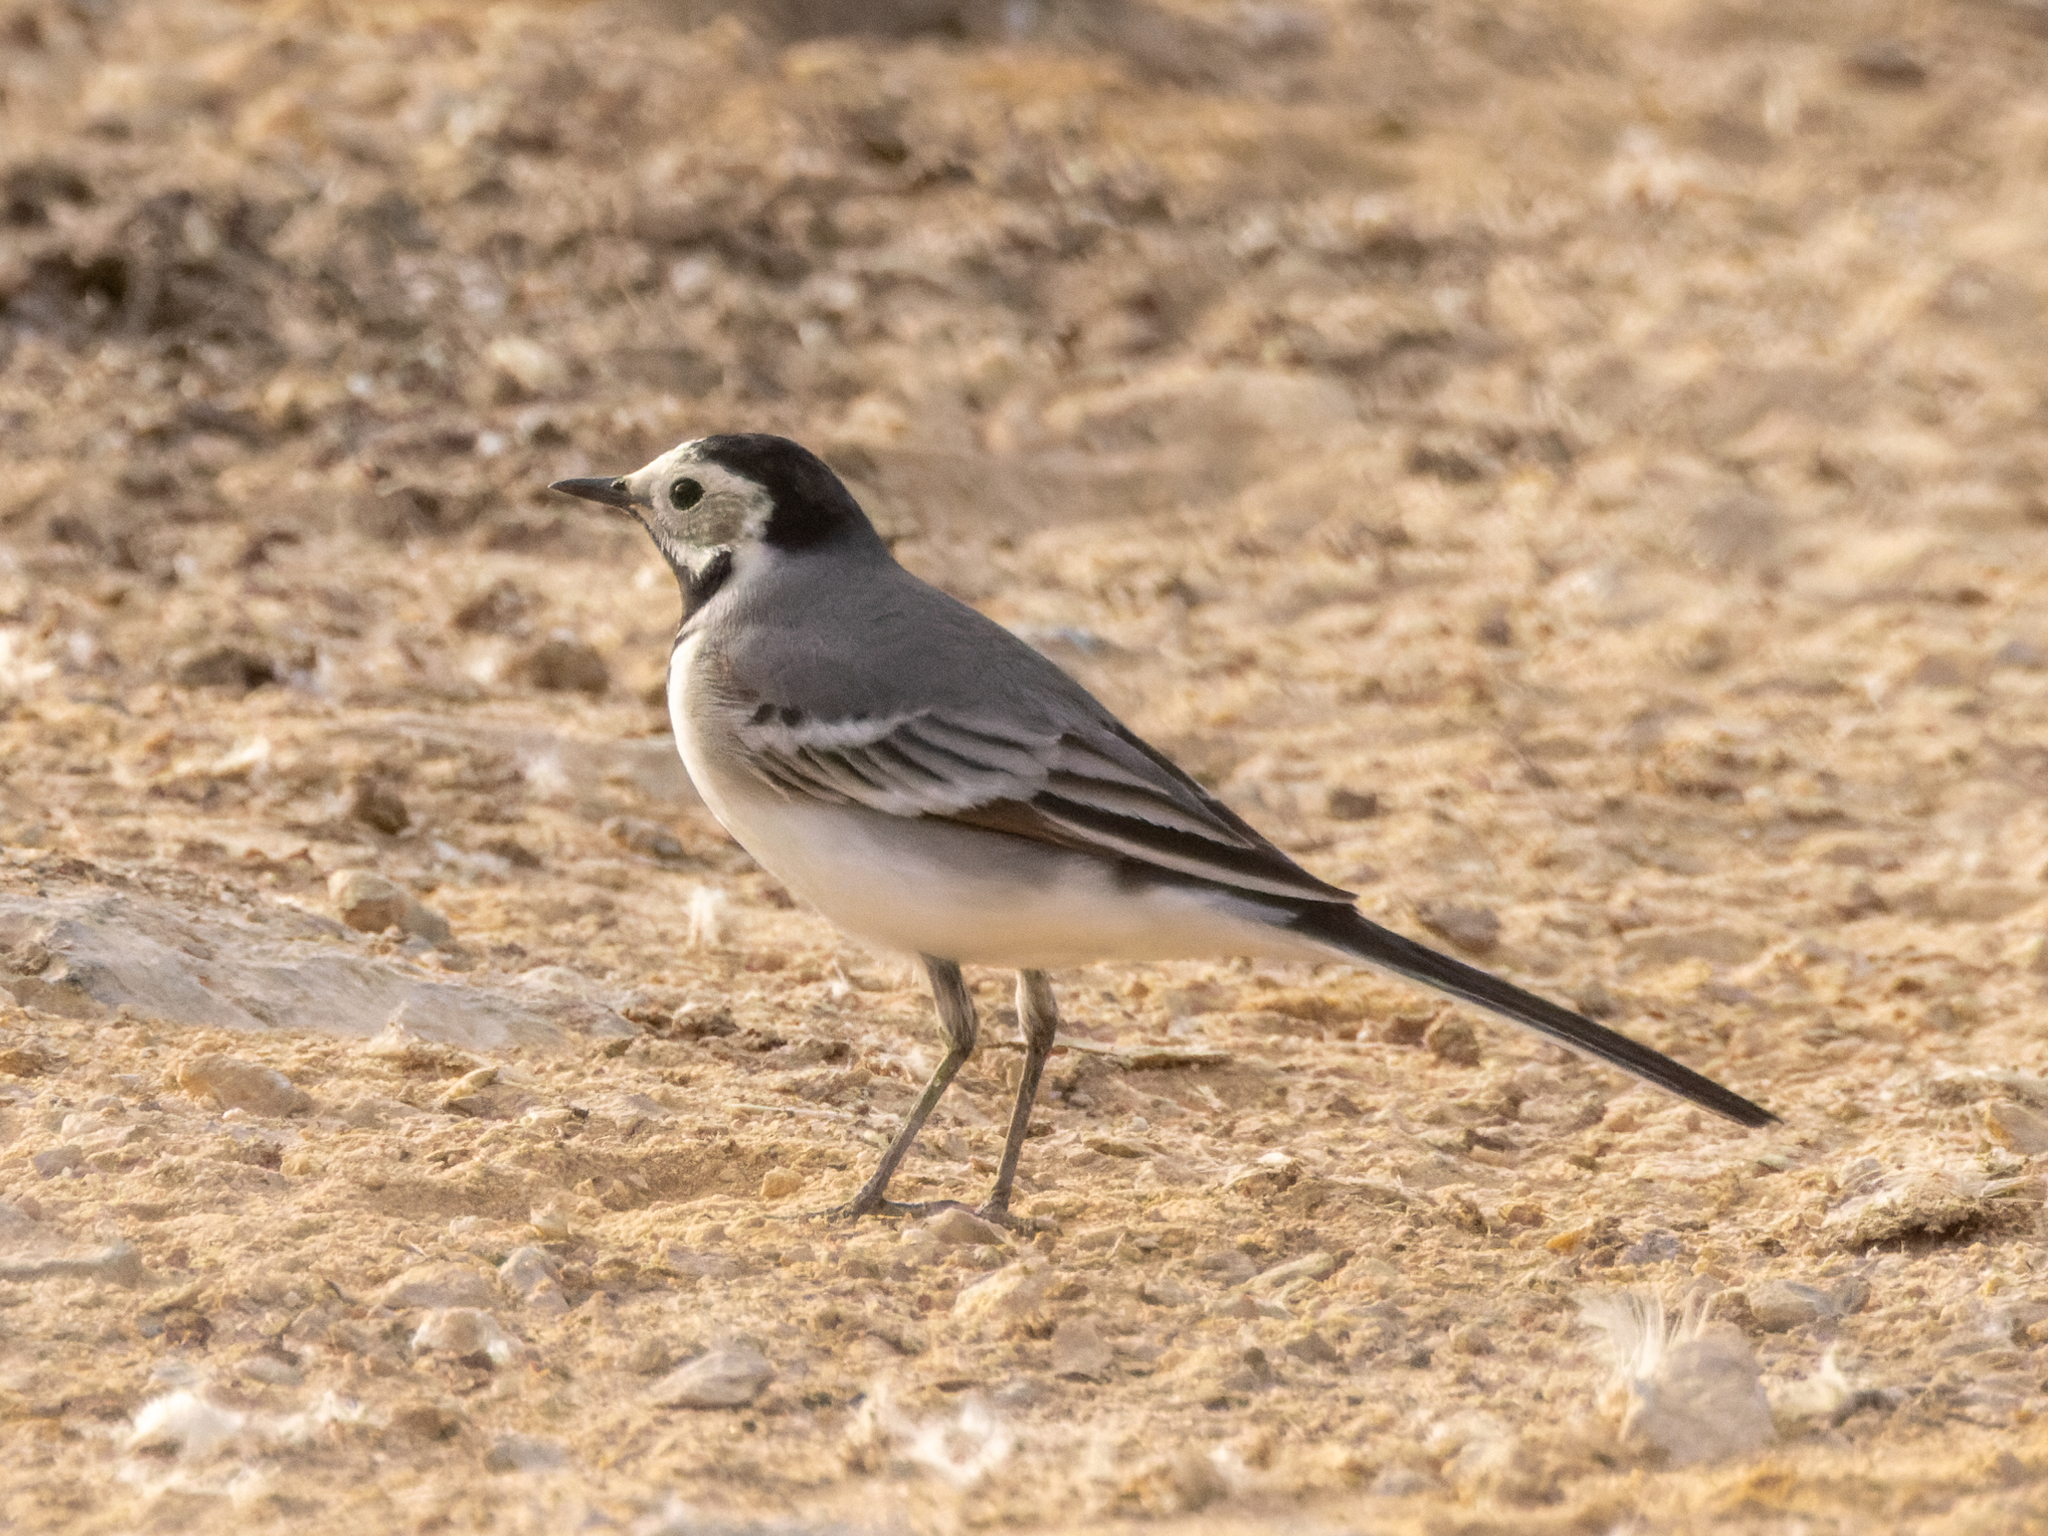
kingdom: Animalia
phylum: Chordata
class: Aves
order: Passeriformes
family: Motacillidae
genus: Motacilla
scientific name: Motacilla alba
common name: White wagtail
